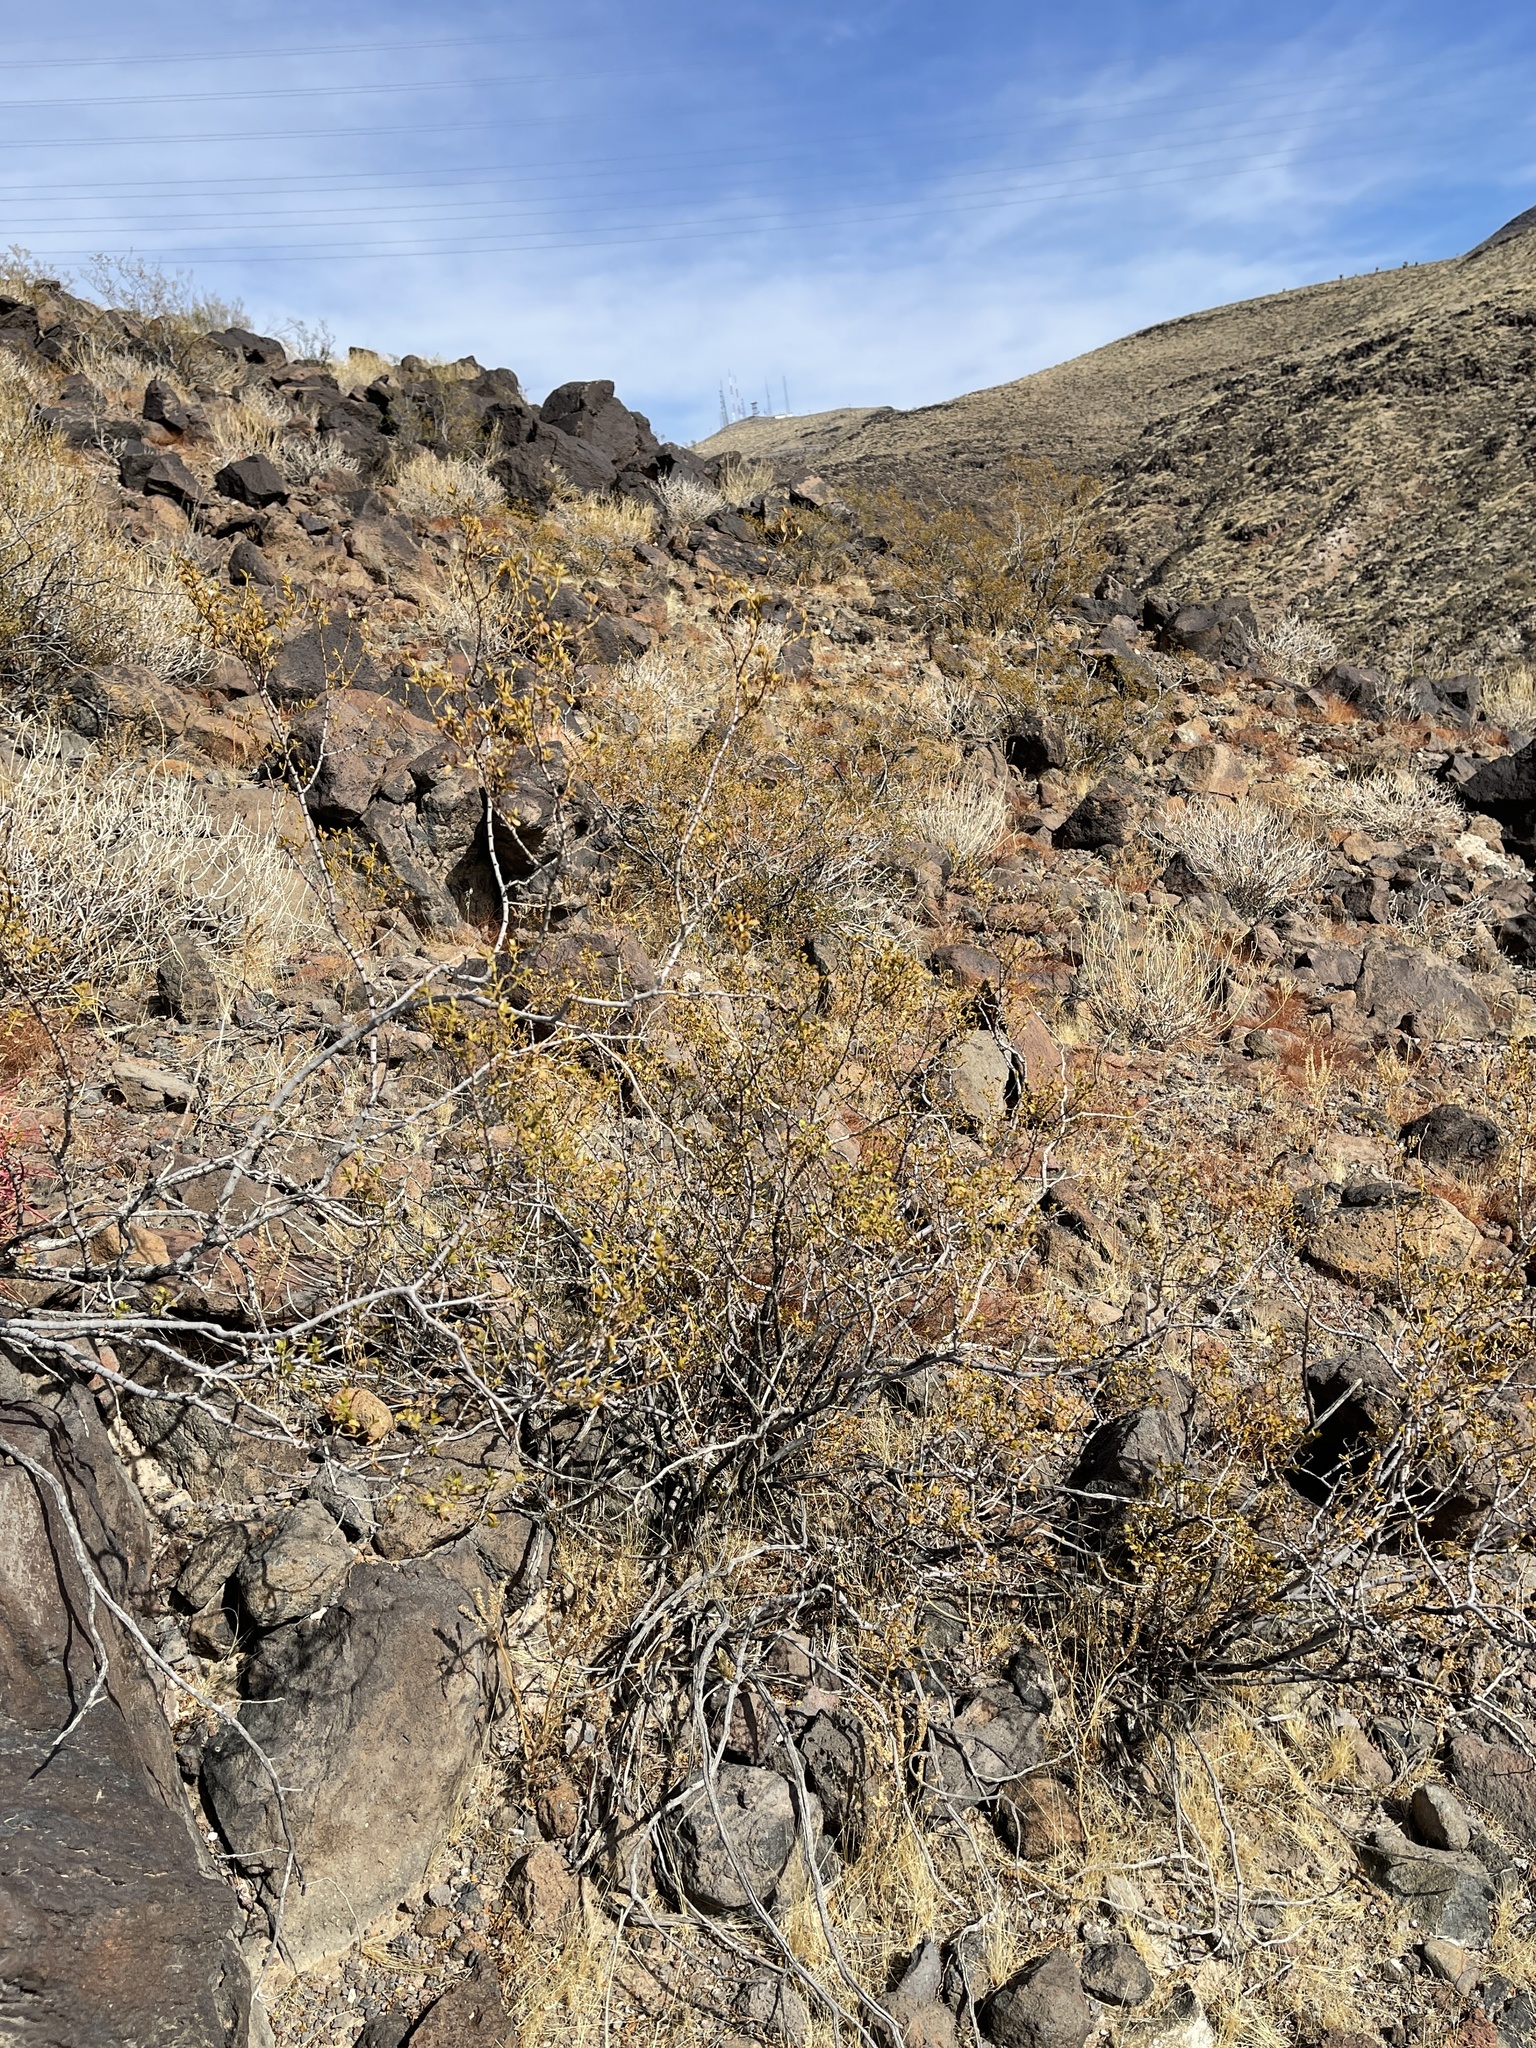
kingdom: Plantae
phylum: Tracheophyta
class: Magnoliopsida
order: Zygophyllales
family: Zygophyllaceae
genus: Larrea
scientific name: Larrea tridentata
